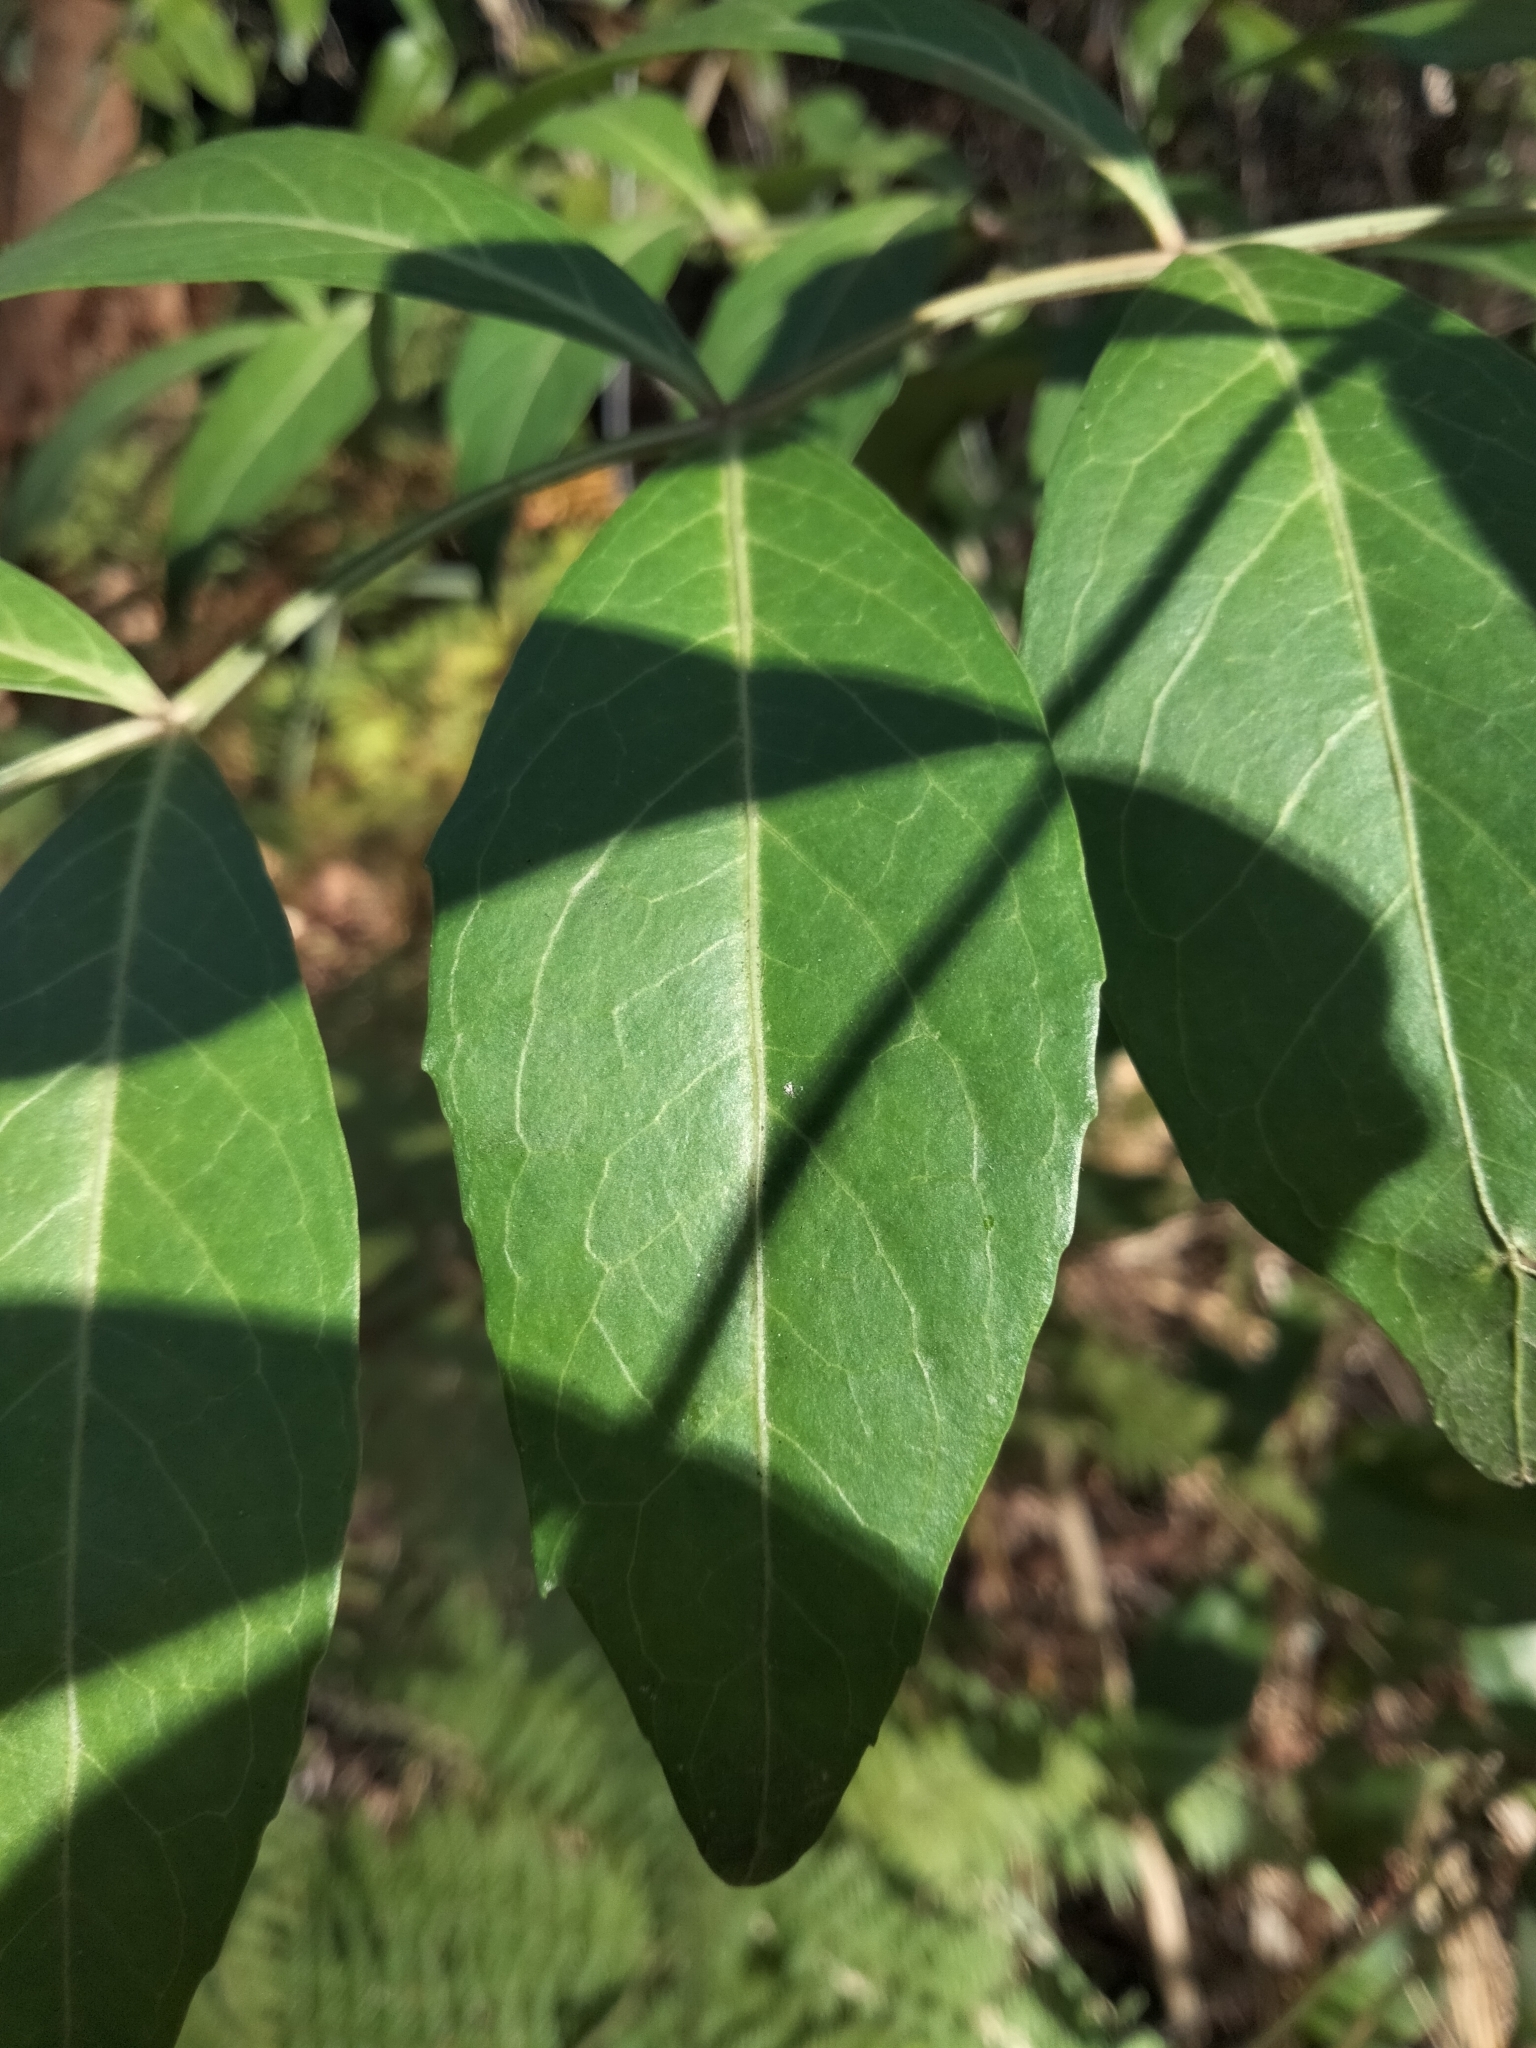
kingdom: Plantae
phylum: Tracheophyta
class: Magnoliopsida
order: Apiales
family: Araliaceae
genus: Polyscias
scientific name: Polyscias sambucifolia
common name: Elderberry-ash
